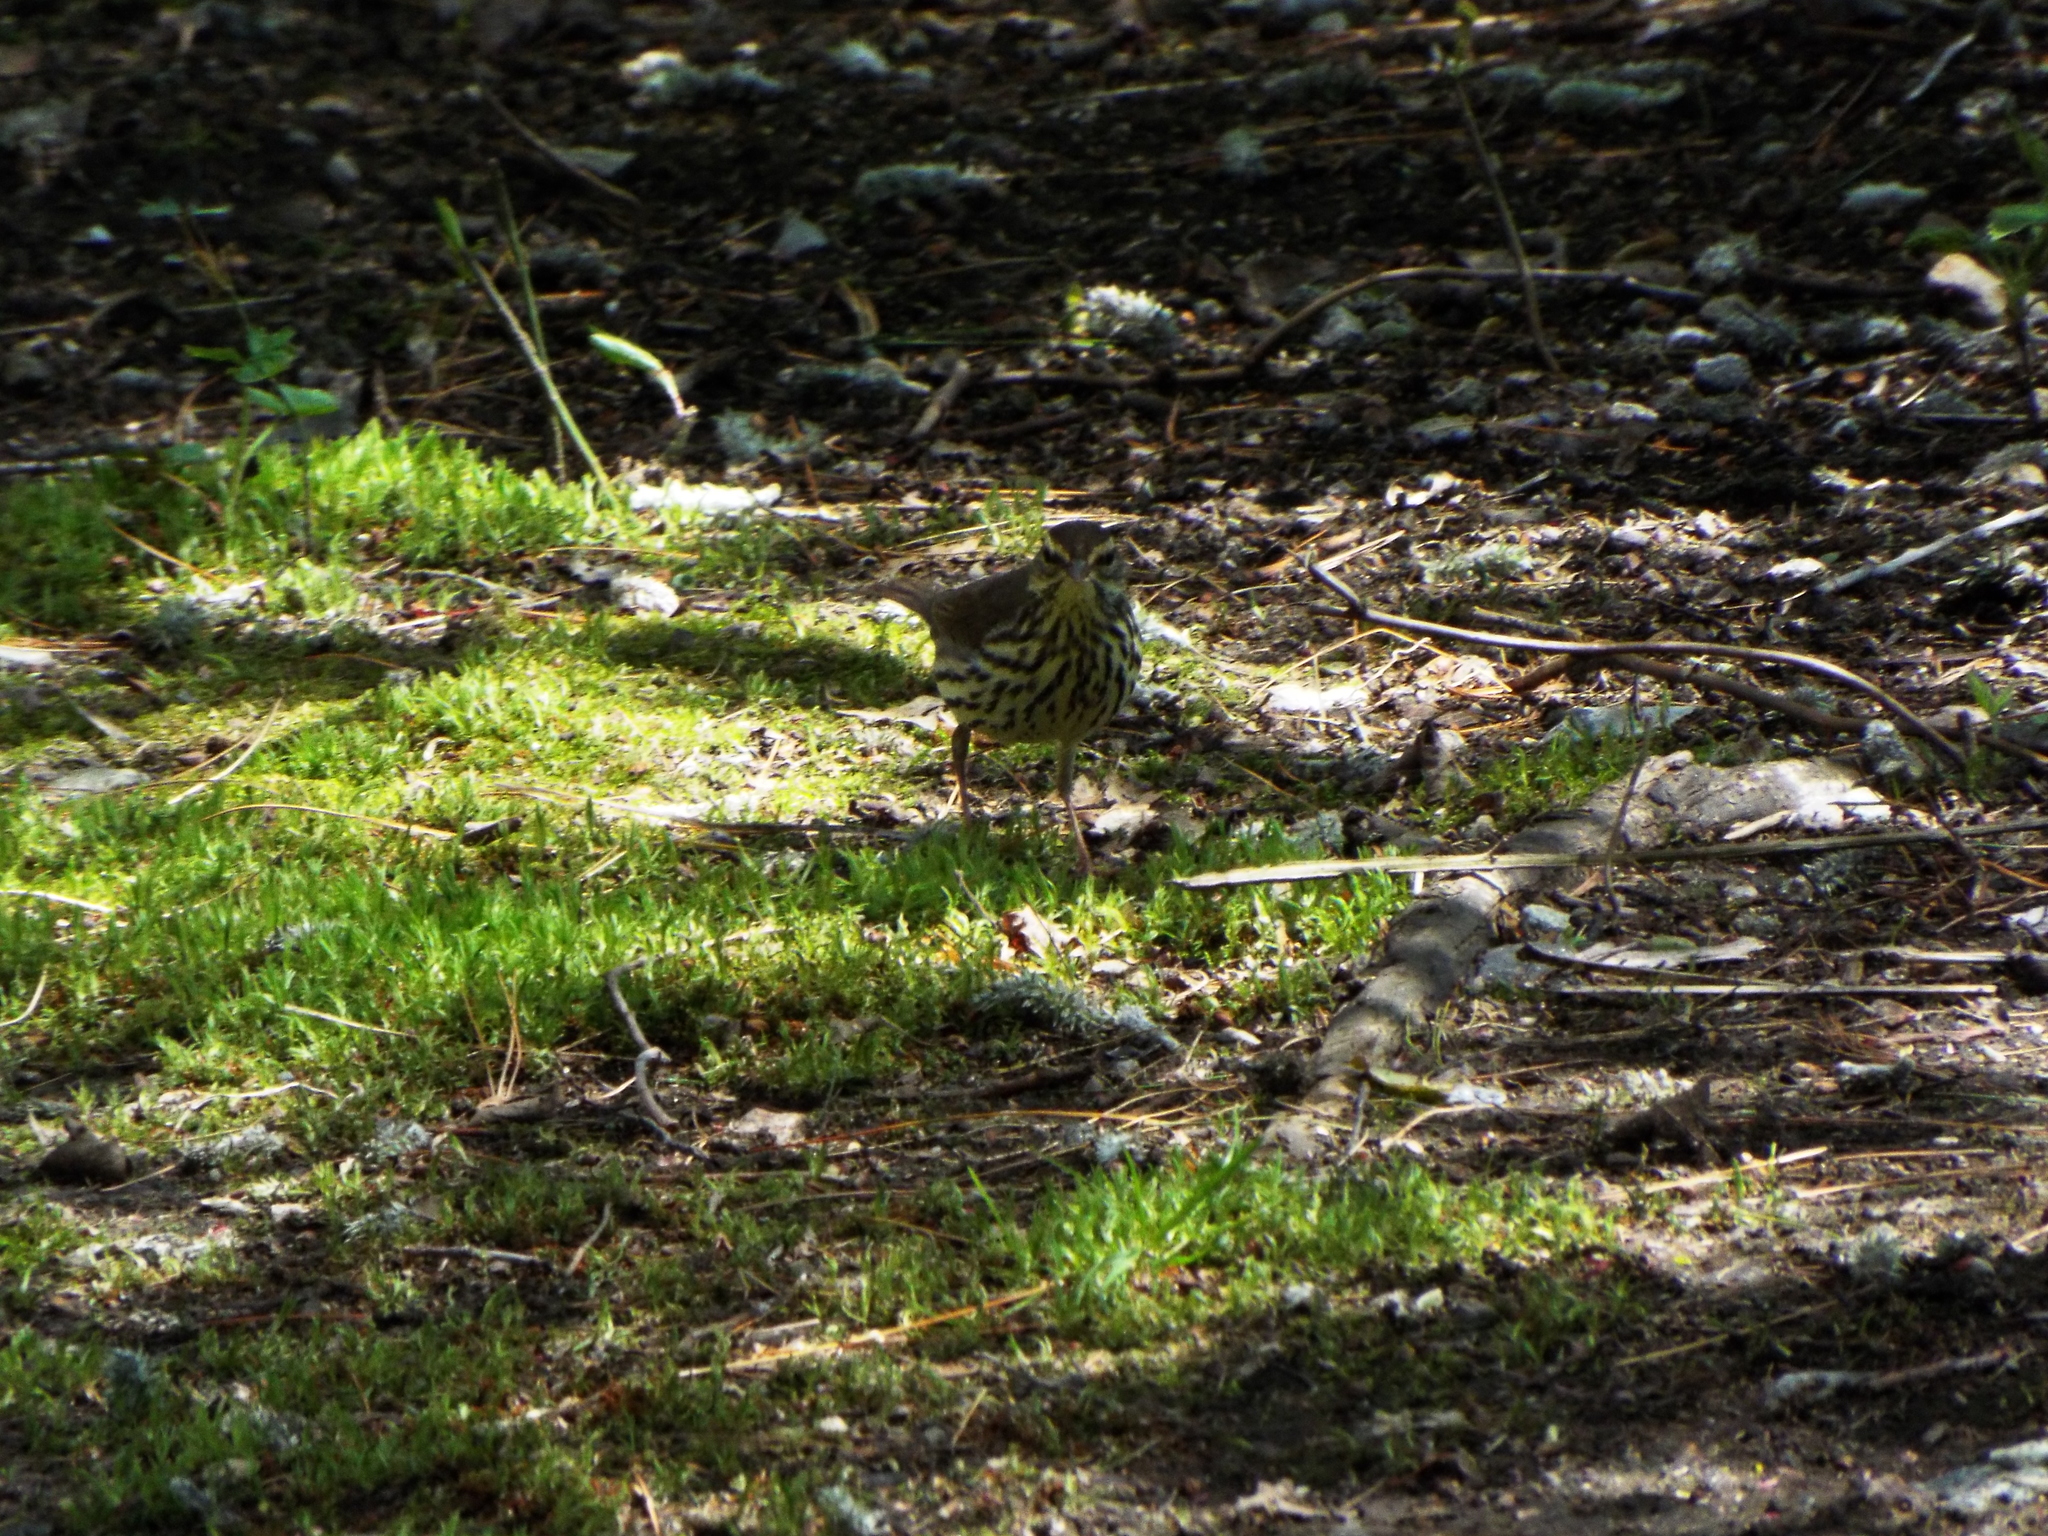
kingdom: Animalia
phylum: Chordata
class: Aves
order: Passeriformes
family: Parulidae
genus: Parkesia
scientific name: Parkesia motacilla
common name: Louisiana waterthrush
